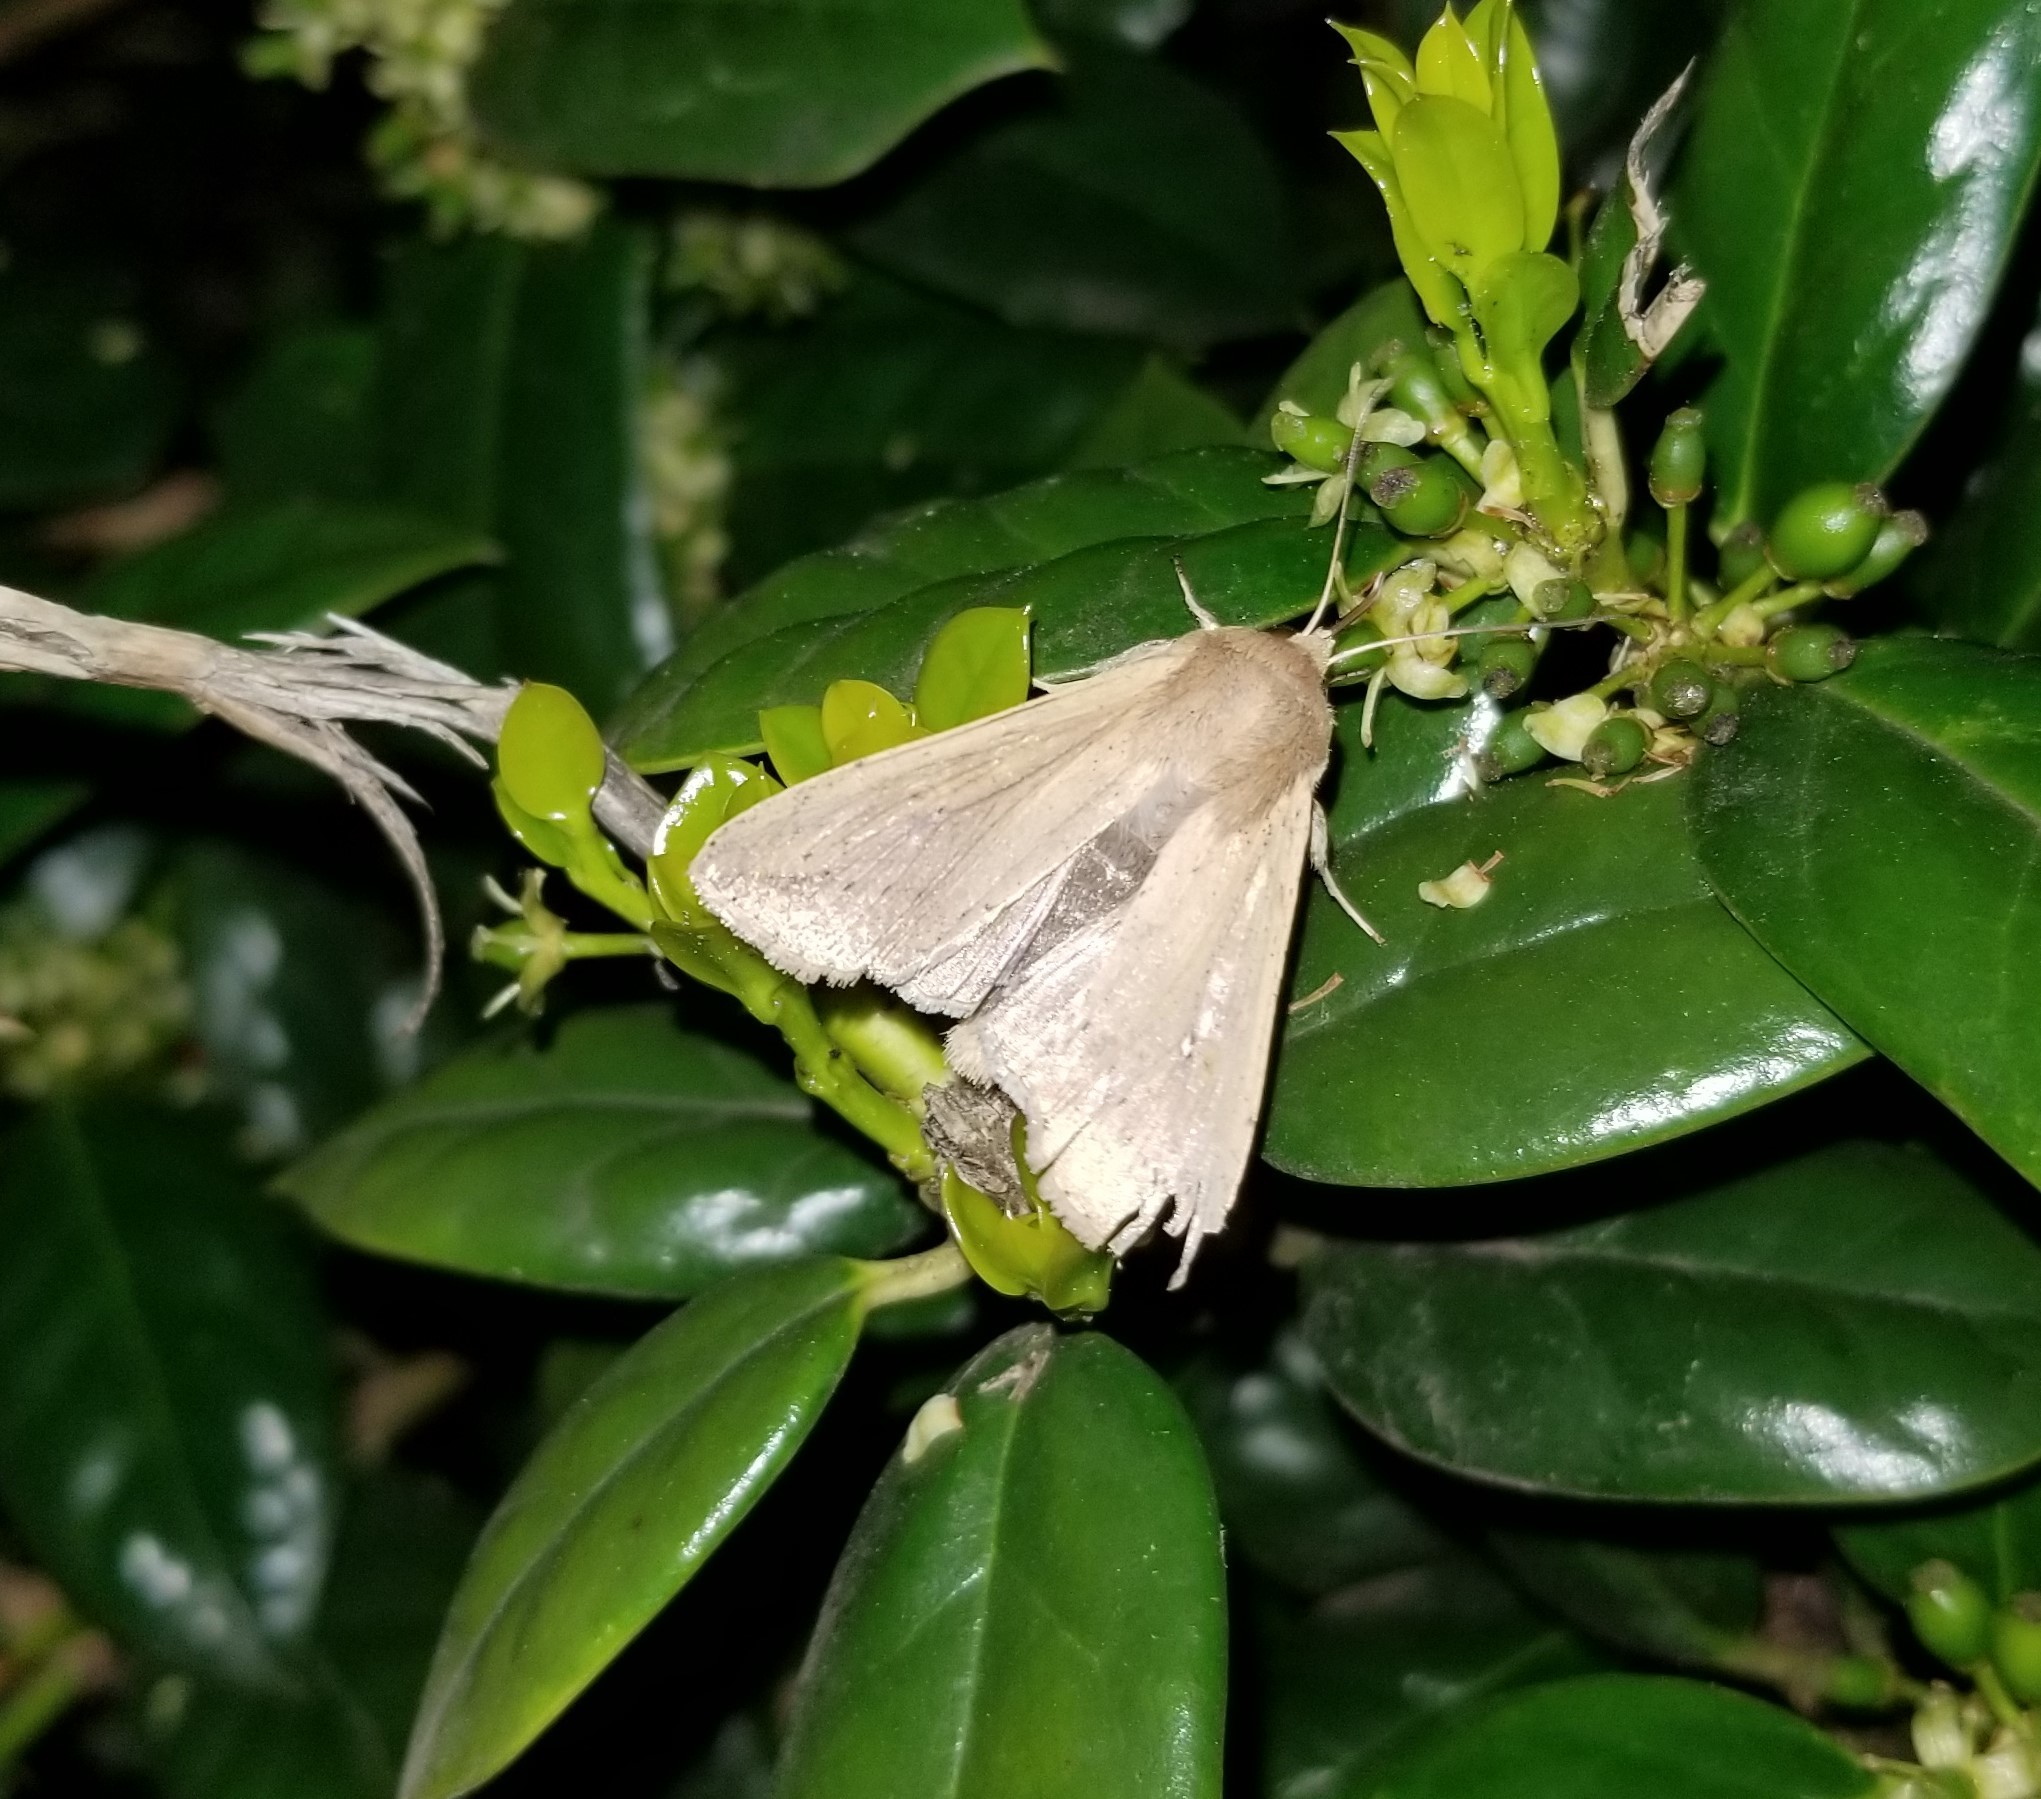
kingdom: Animalia
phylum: Arthropoda
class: Insecta
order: Lepidoptera
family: Noctuidae
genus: Mythimna
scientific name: Mythimna unipuncta
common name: White-speck
